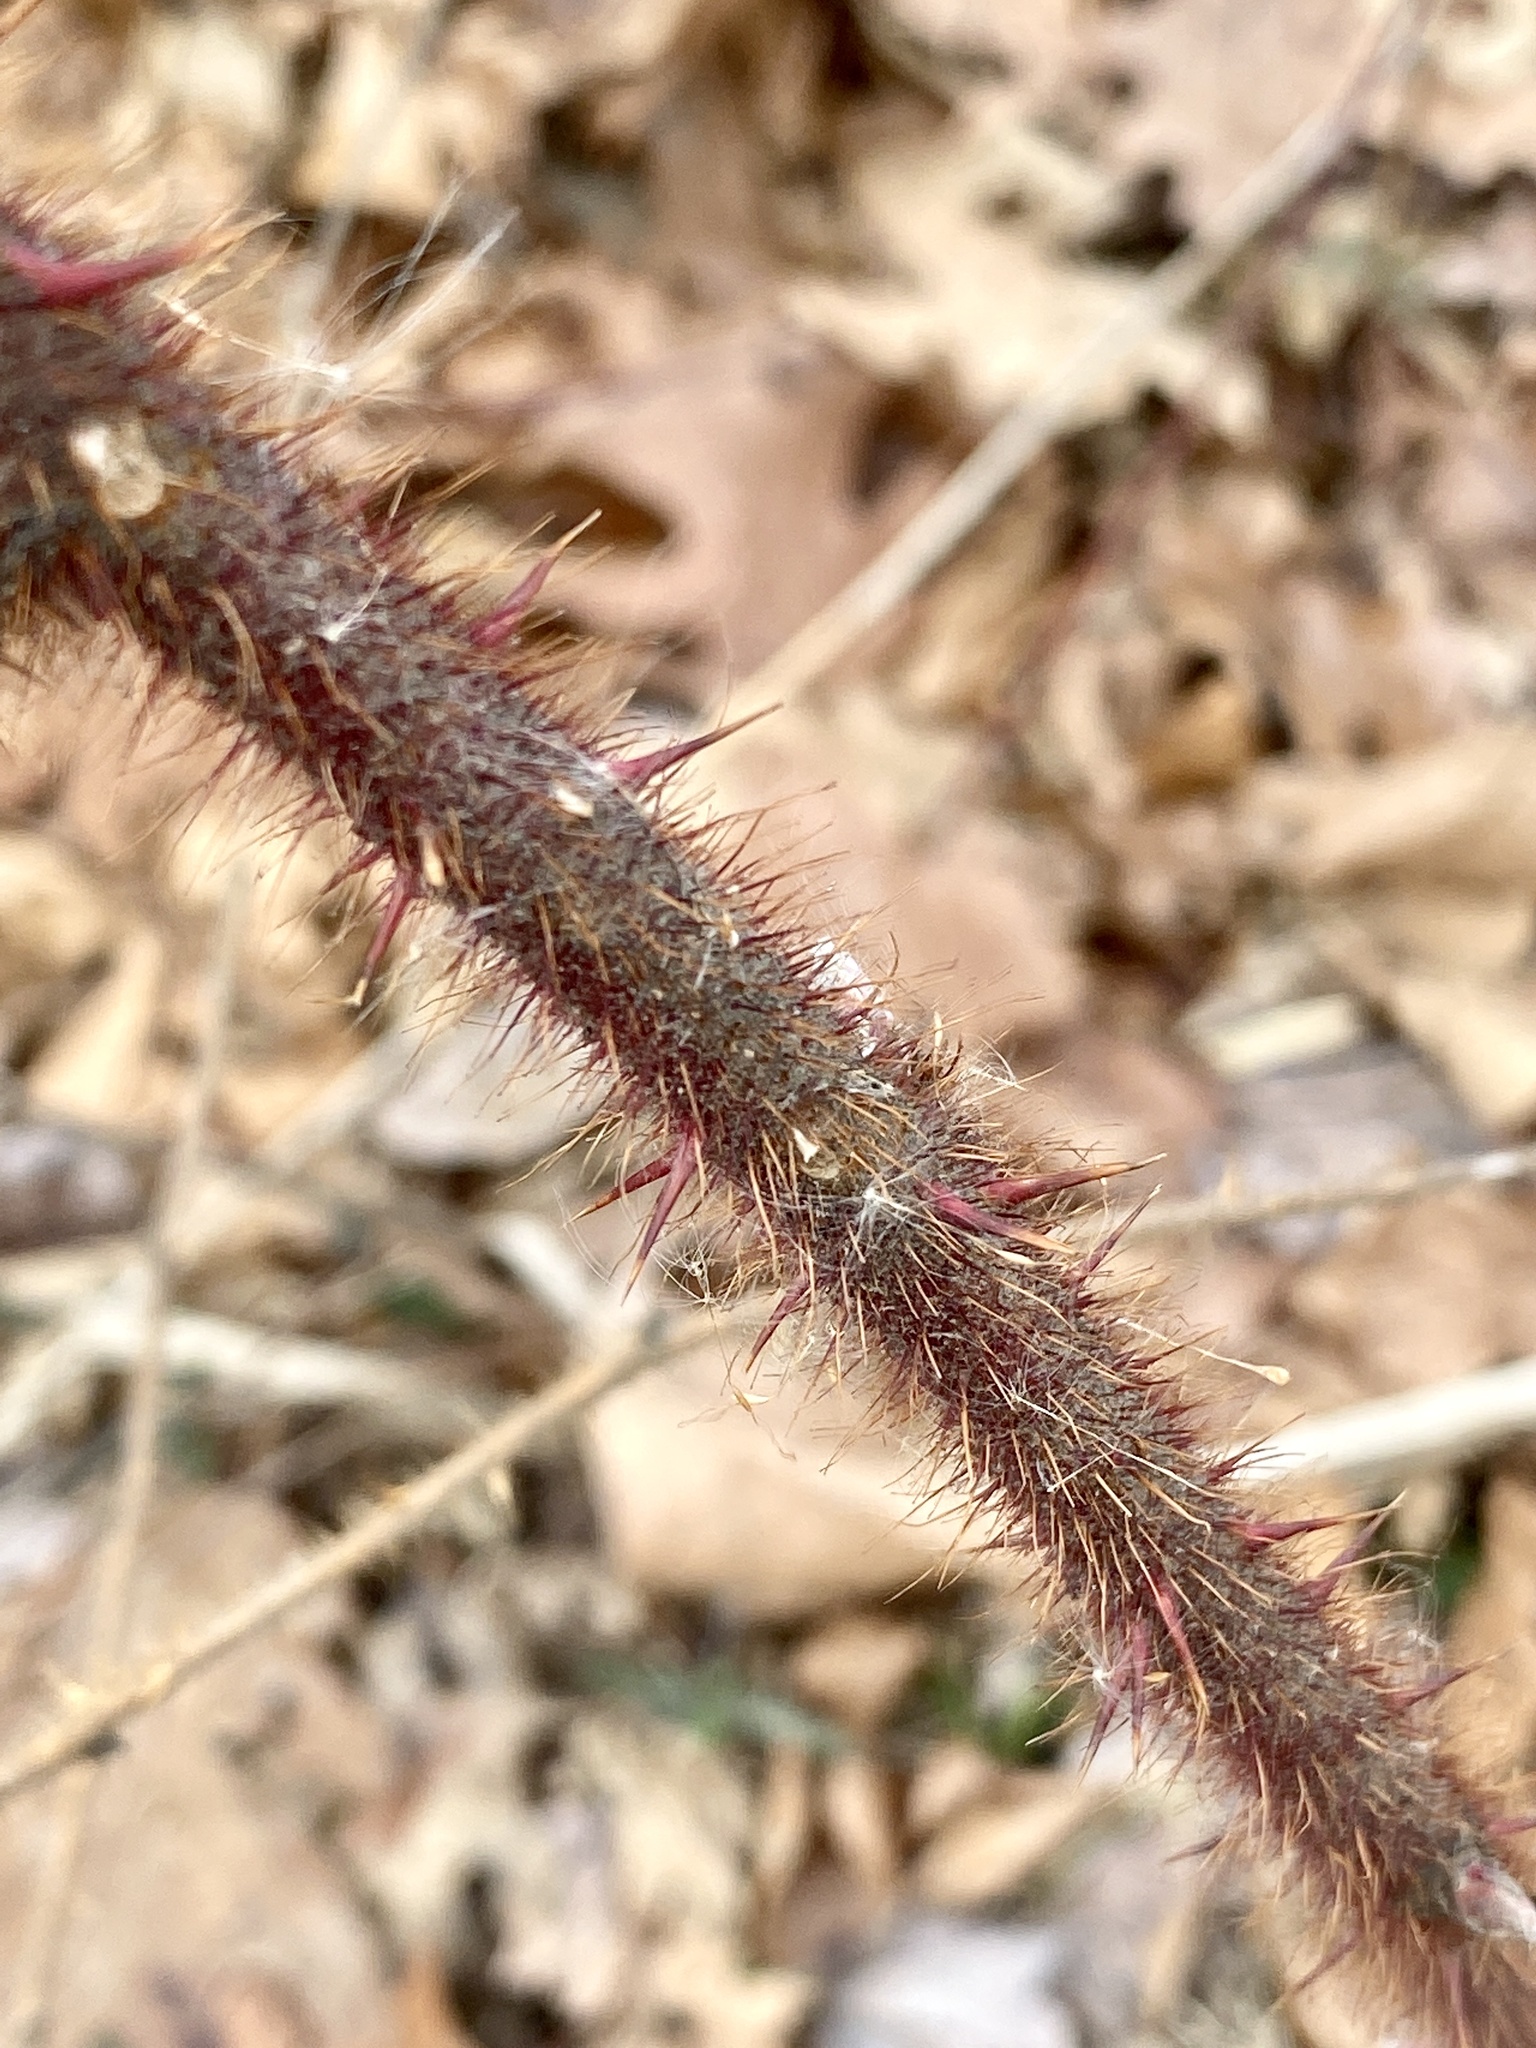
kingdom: Plantae
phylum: Tracheophyta
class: Magnoliopsida
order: Rosales
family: Rosaceae
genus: Rubus
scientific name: Rubus phoenicolasius
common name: Japanese wineberry
